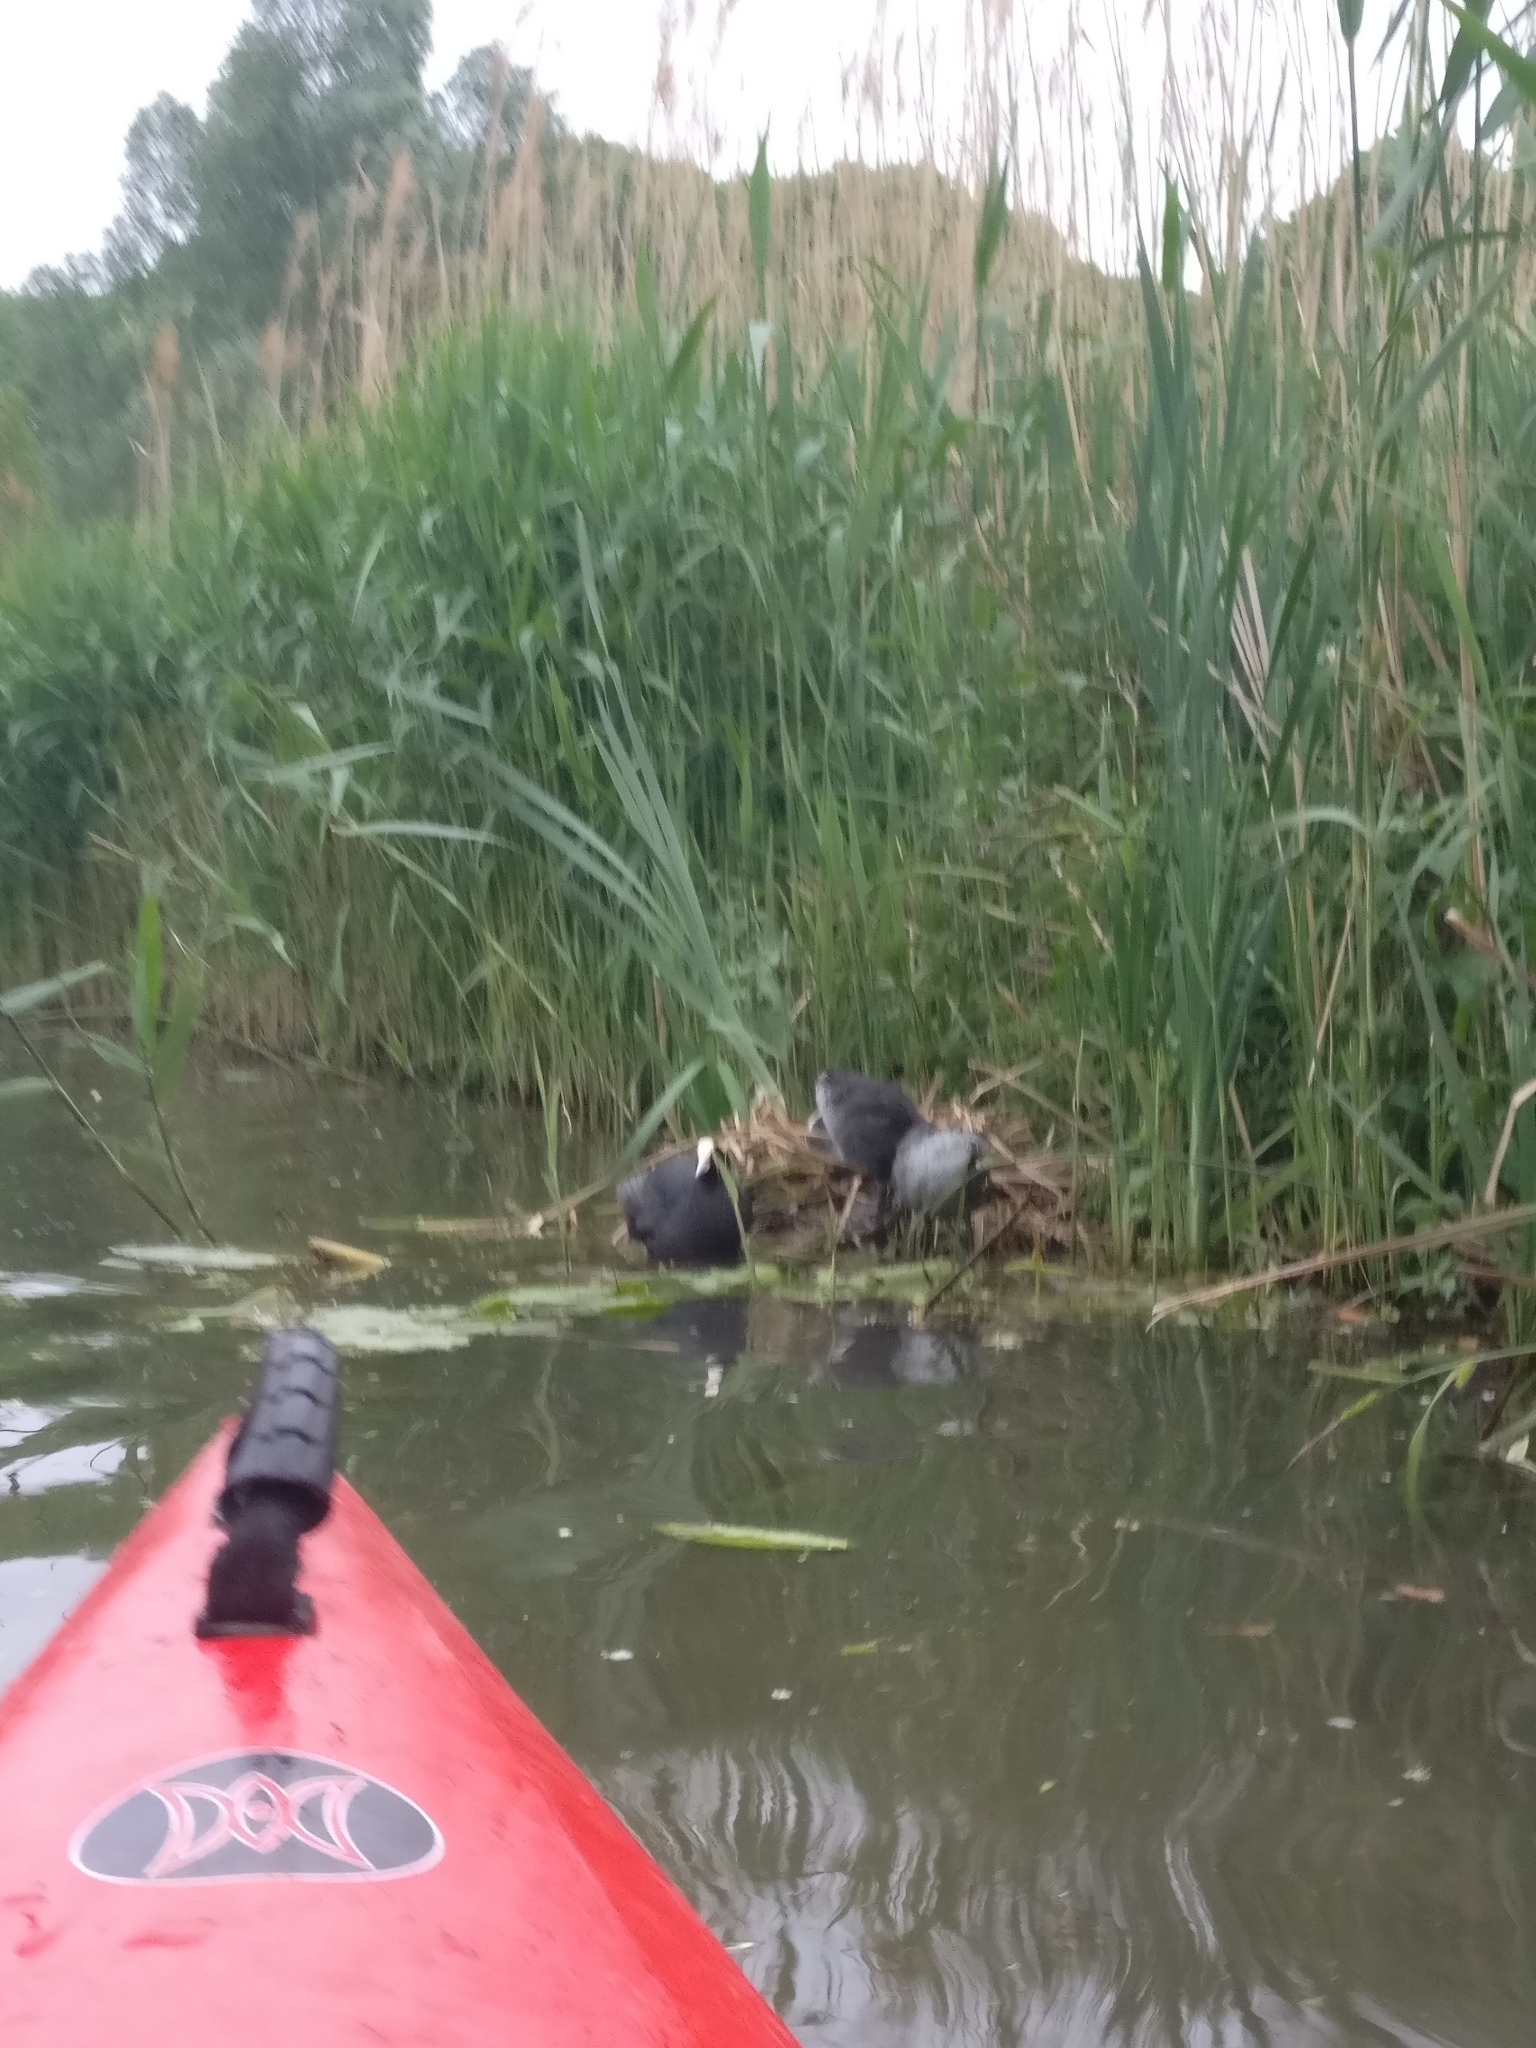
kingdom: Animalia
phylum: Chordata
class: Aves
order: Gruiformes
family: Rallidae
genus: Fulica
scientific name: Fulica atra
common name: Eurasian coot
